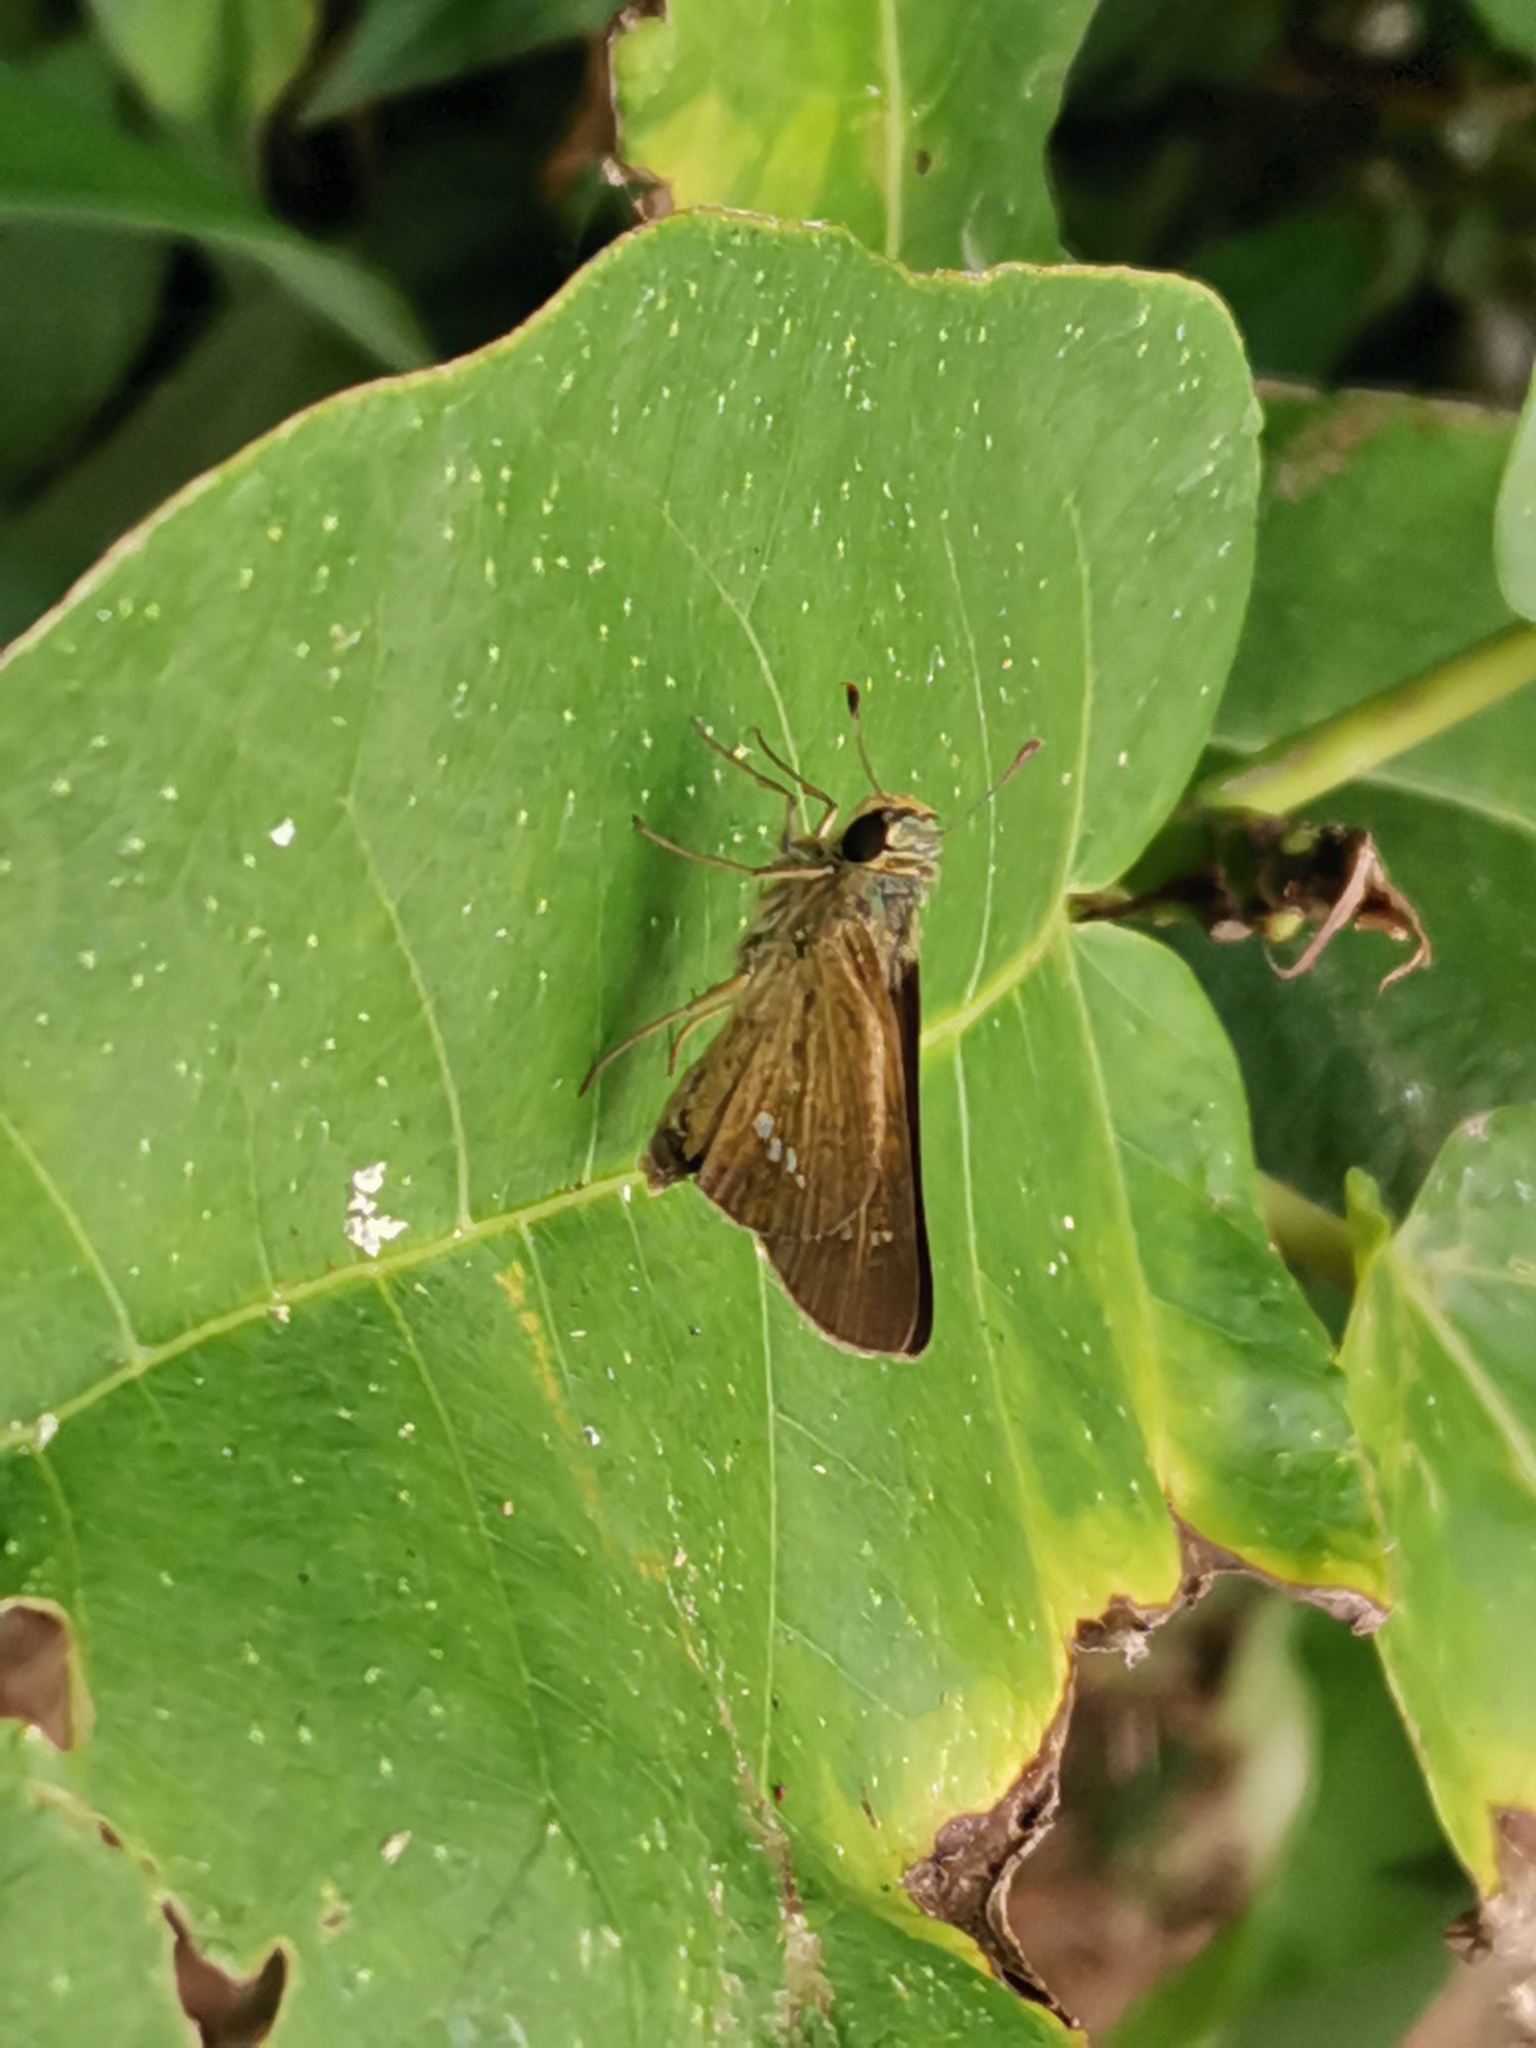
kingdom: Animalia
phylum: Arthropoda
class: Insecta
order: Lepidoptera
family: Hesperiidae
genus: Parnara
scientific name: Parnara guttatus
